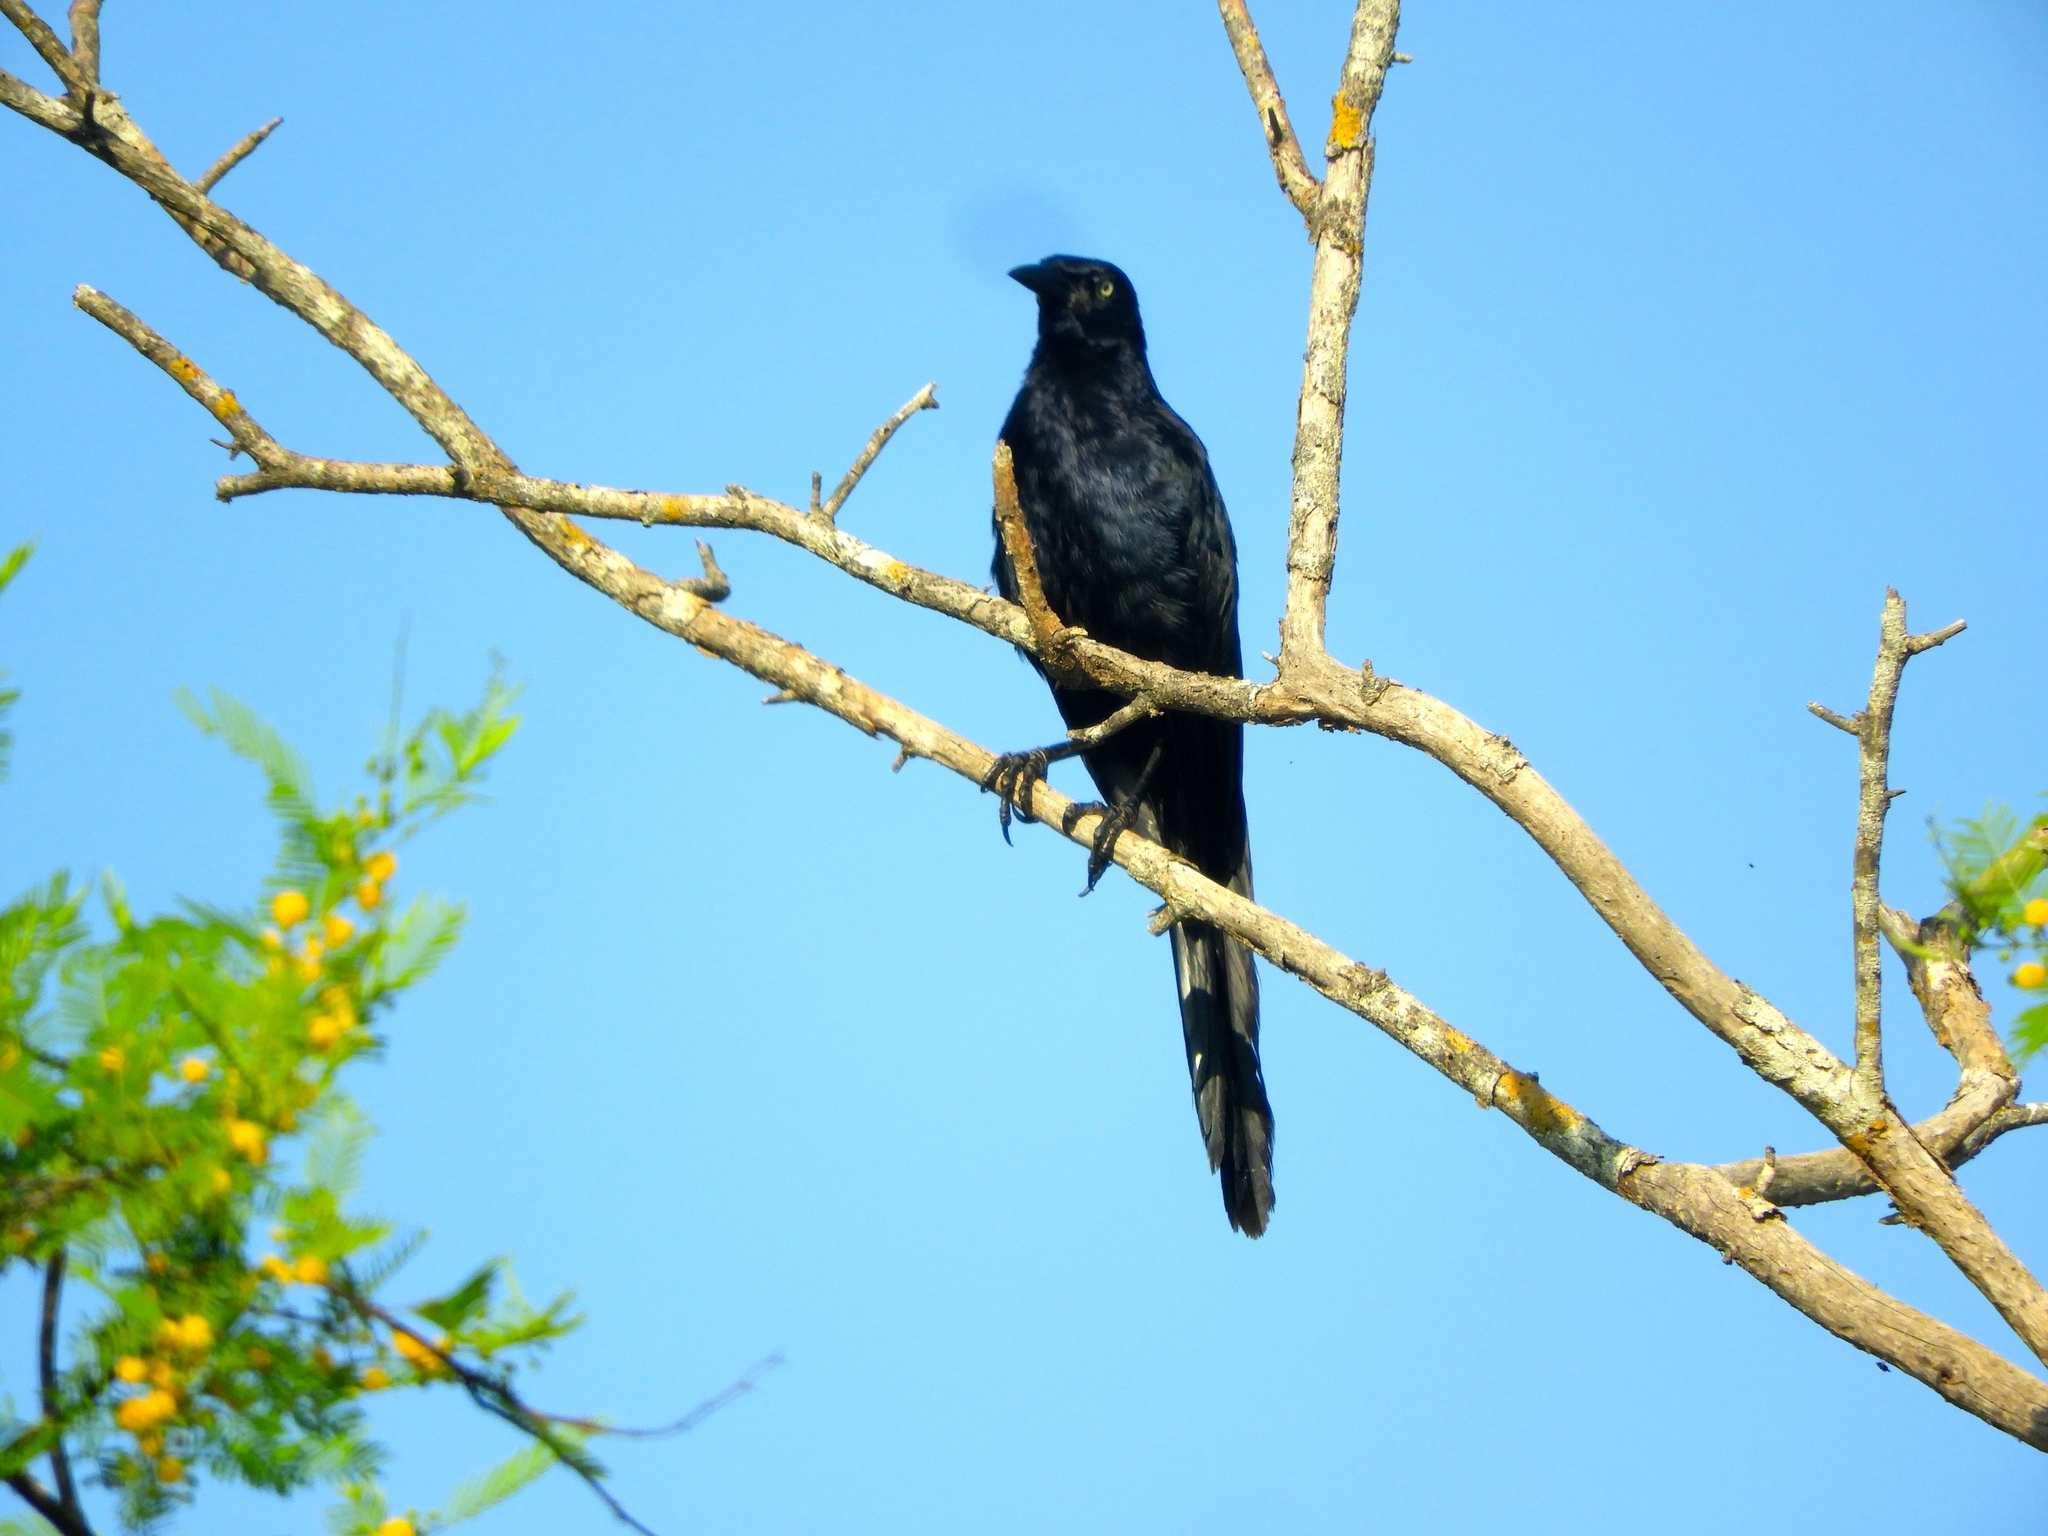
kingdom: Animalia
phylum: Chordata
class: Aves
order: Passeriformes
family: Icteridae
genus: Quiscalus
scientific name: Quiscalus mexicanus
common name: Great-tailed grackle
